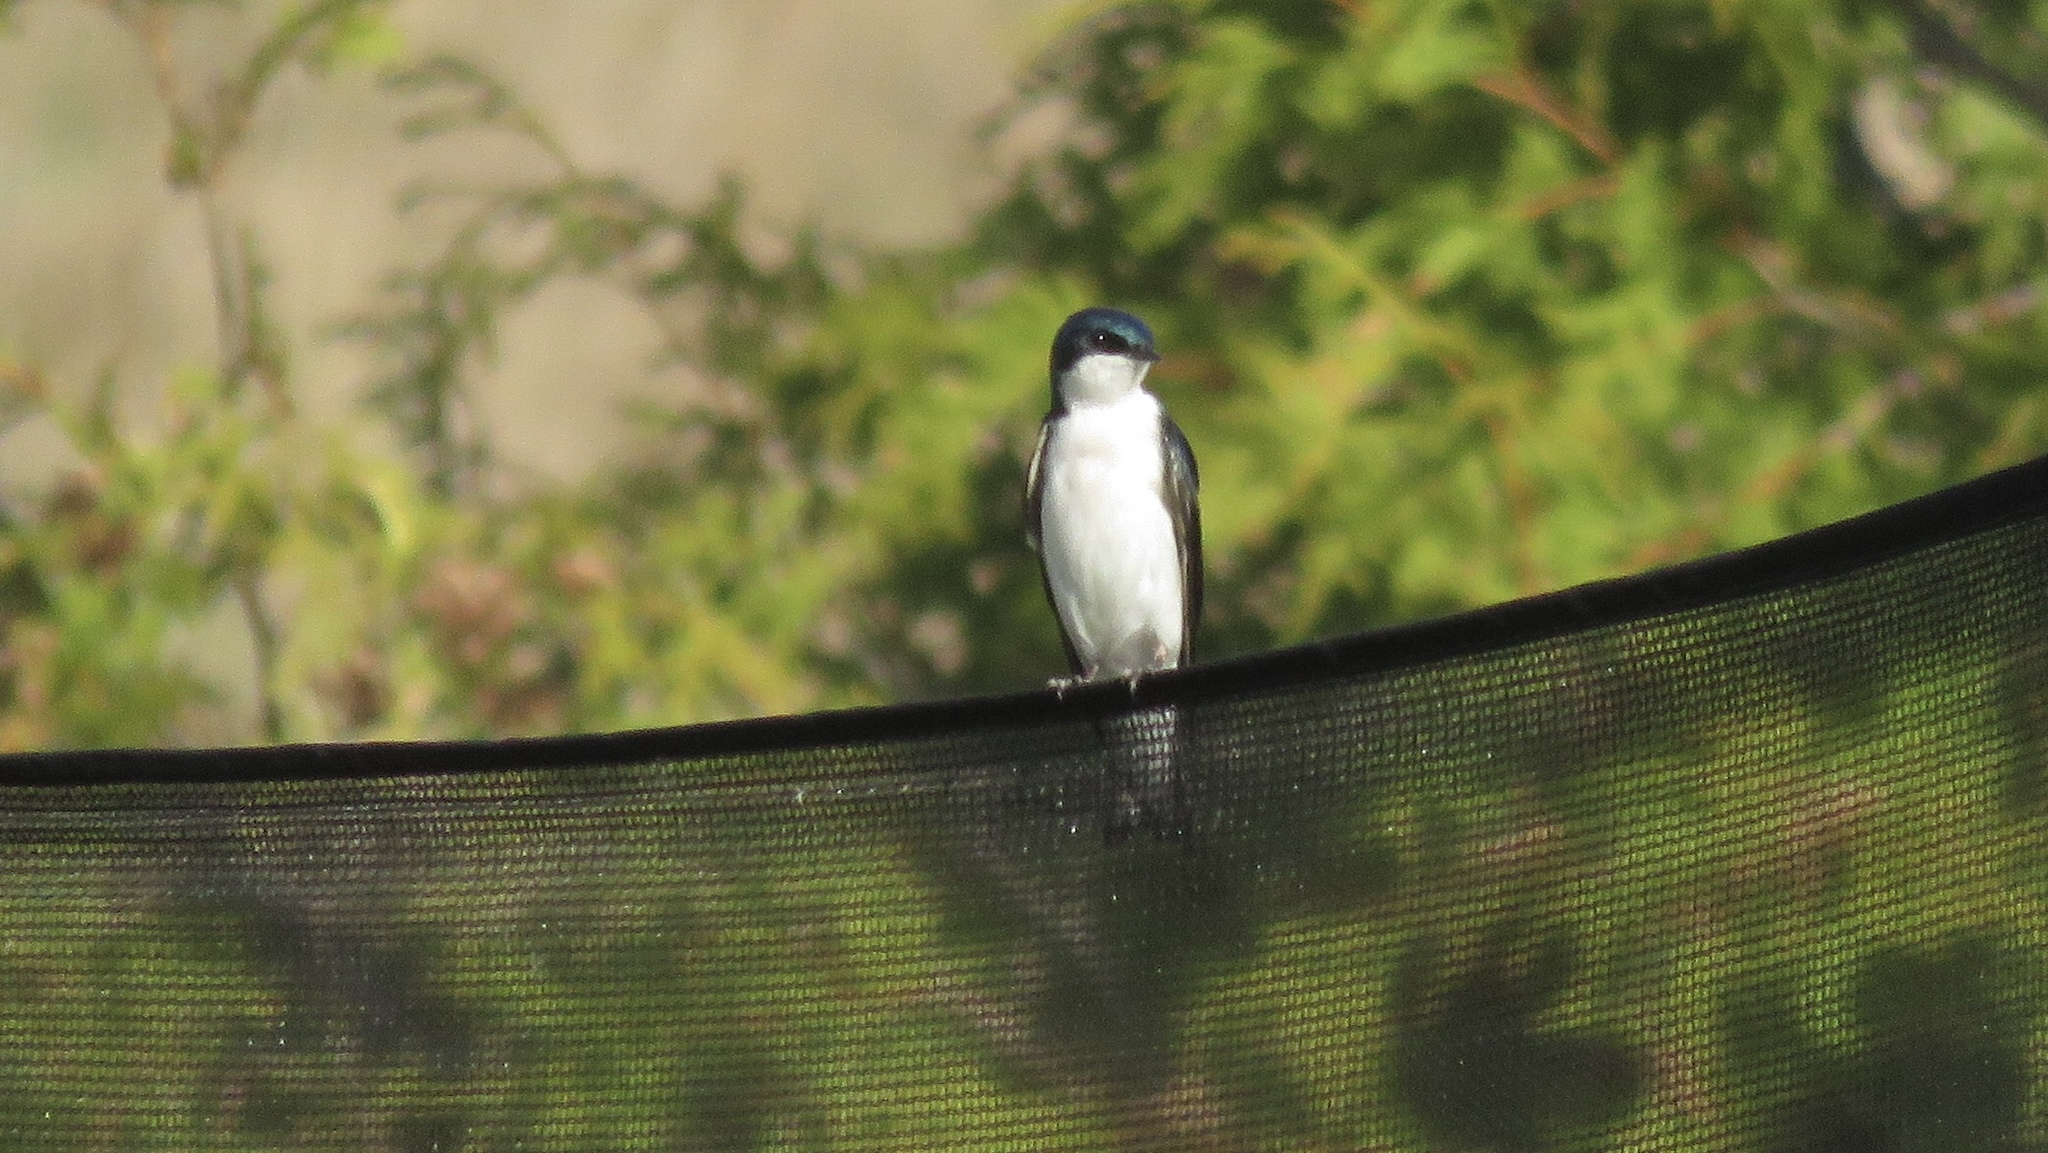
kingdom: Animalia
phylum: Chordata
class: Aves
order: Passeriformes
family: Hirundinidae
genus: Tachycineta
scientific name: Tachycineta bicolor
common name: Tree swallow
